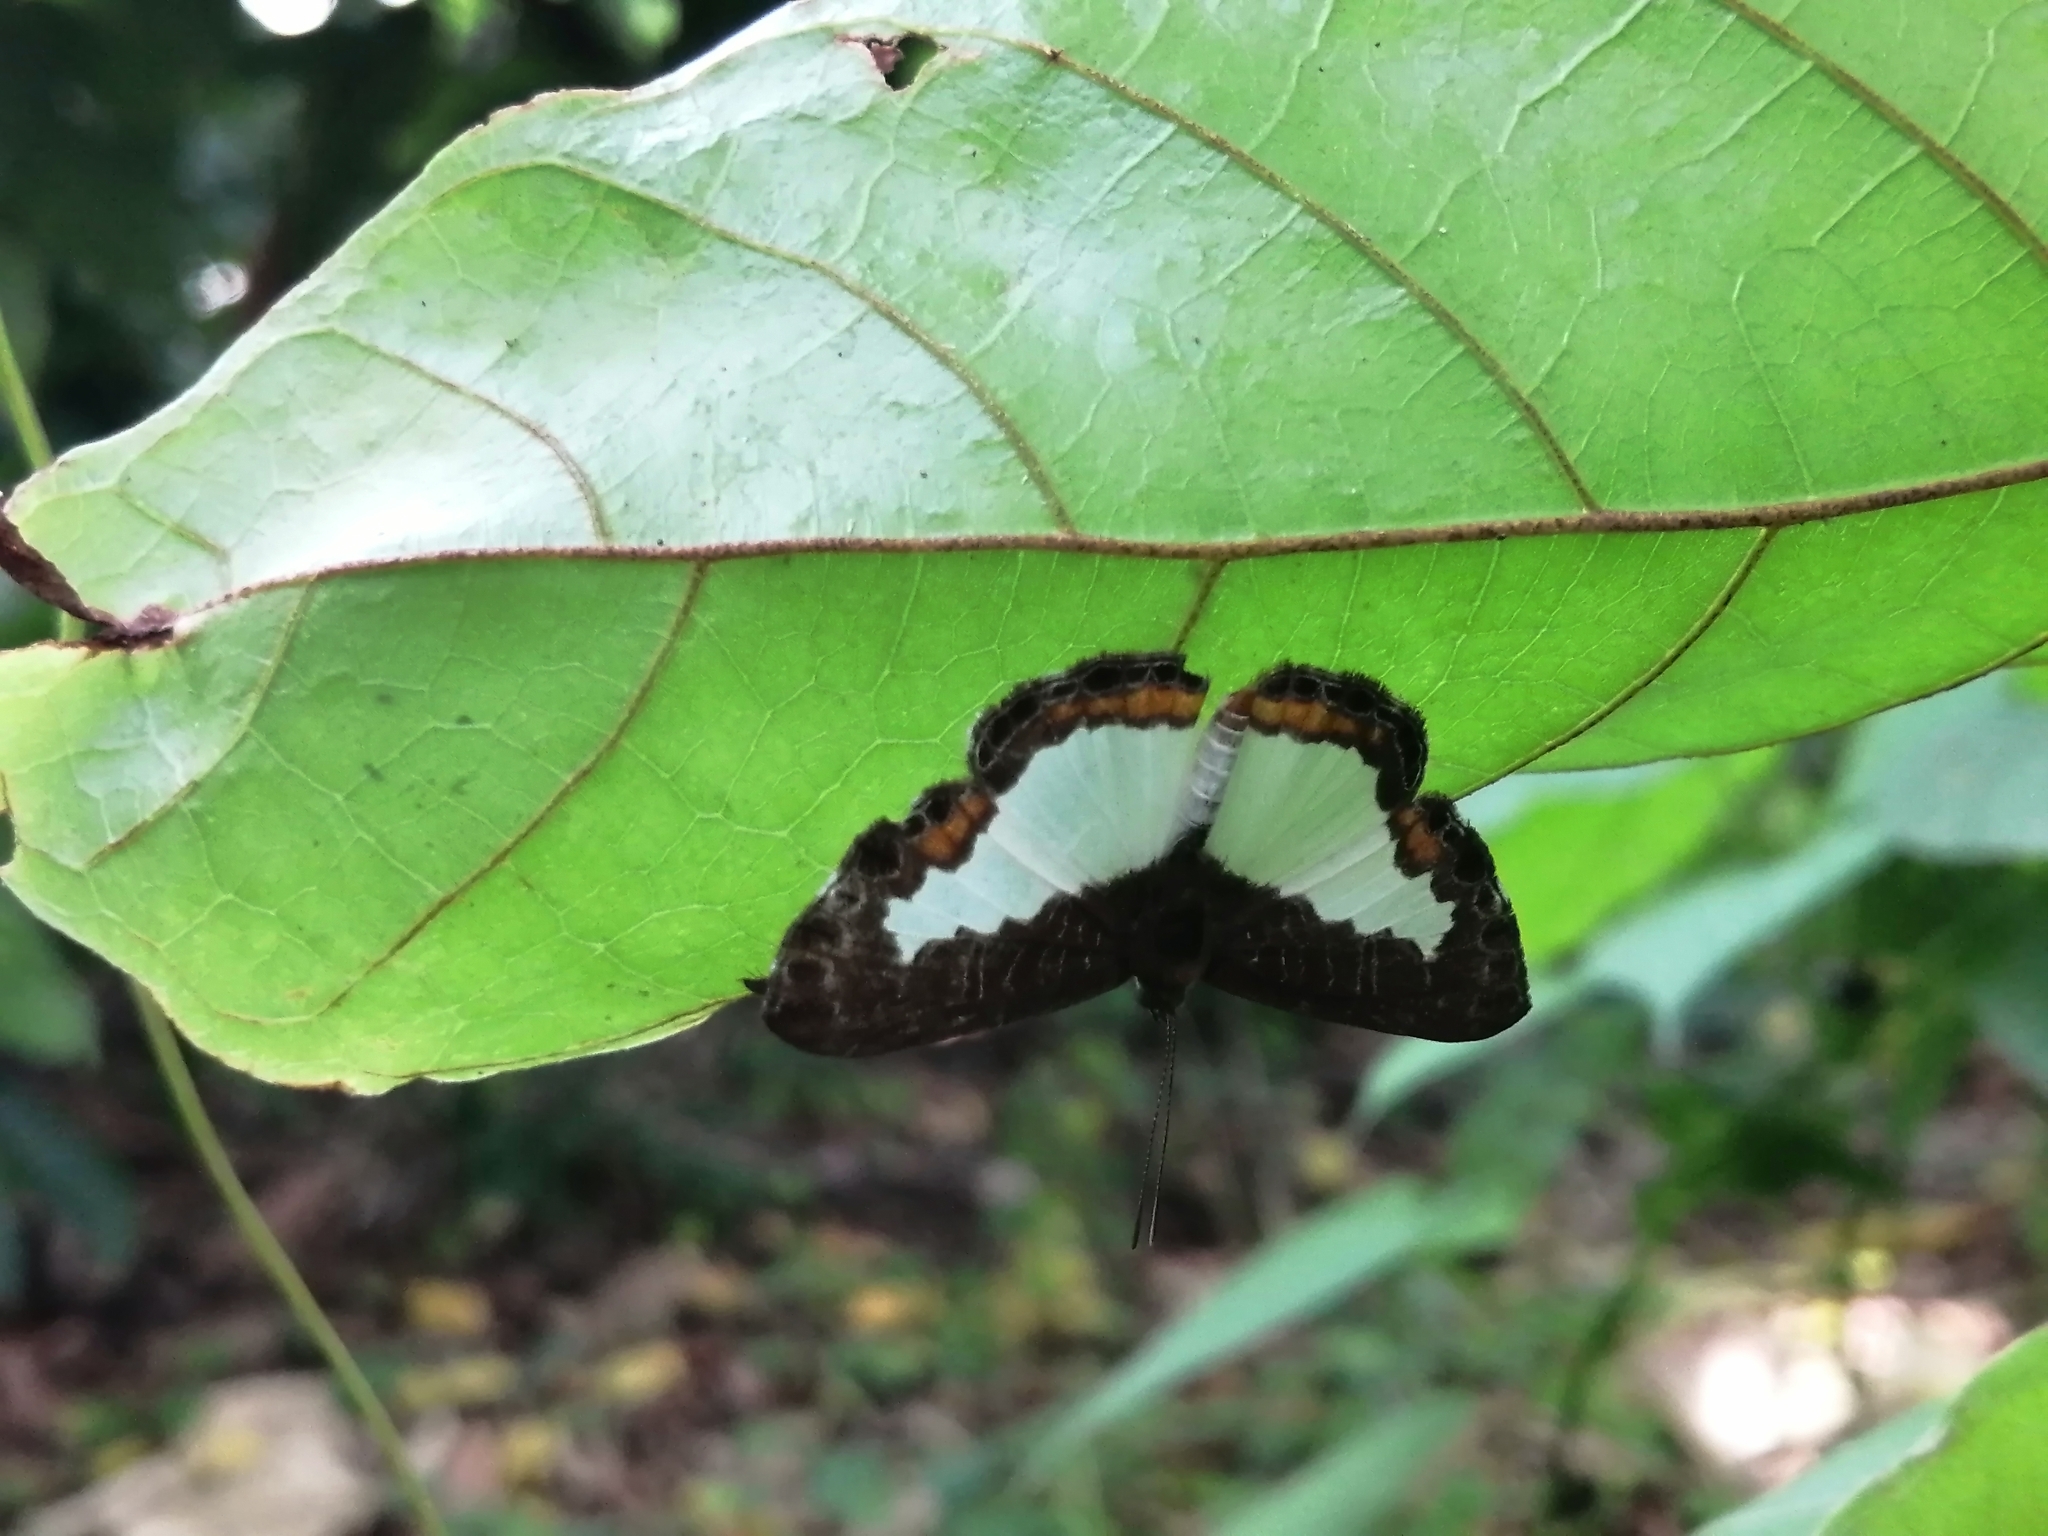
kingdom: Animalia
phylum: Arthropoda
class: Insecta
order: Lepidoptera
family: Riodinidae
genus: Juditha
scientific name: Juditha caucana
